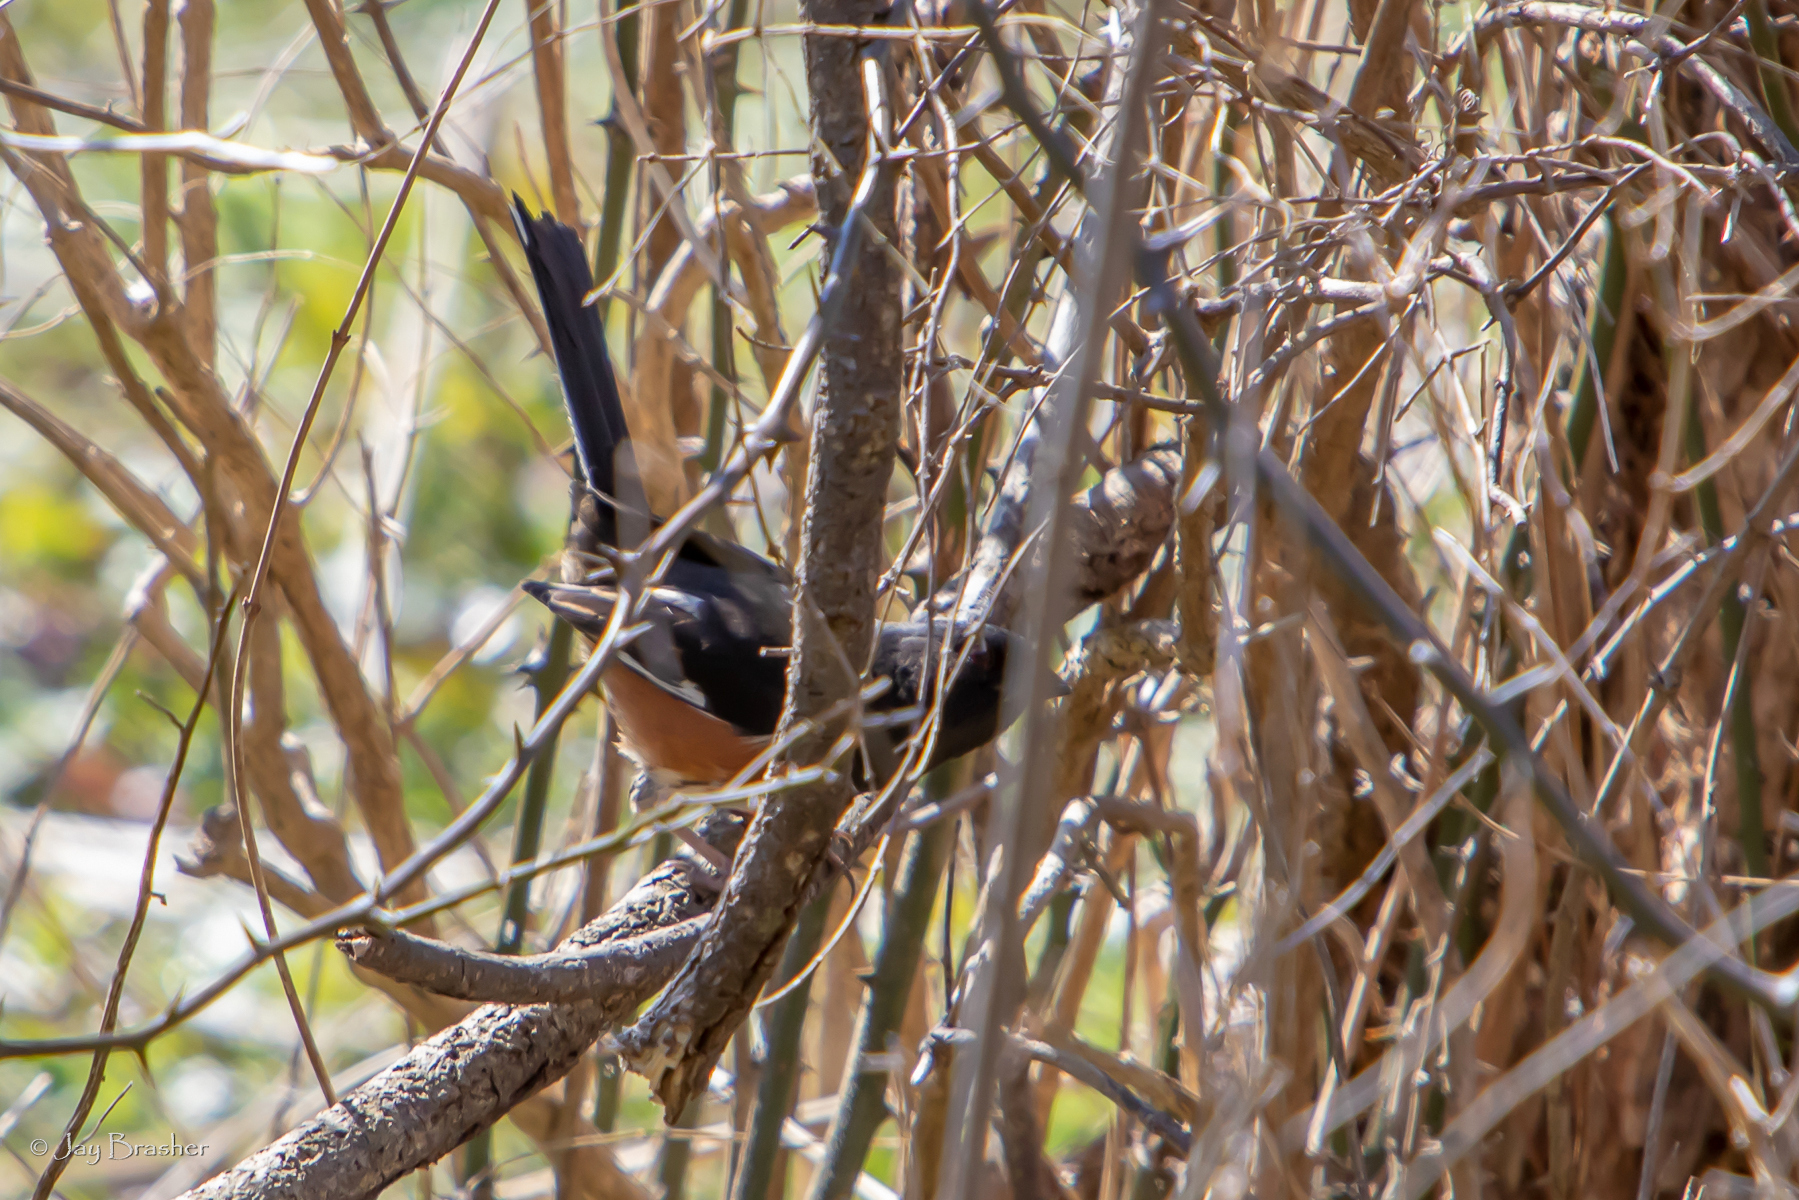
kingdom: Animalia
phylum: Chordata
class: Aves
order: Passeriformes
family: Passerellidae
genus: Pipilo
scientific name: Pipilo erythrophthalmus
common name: Eastern towhee
